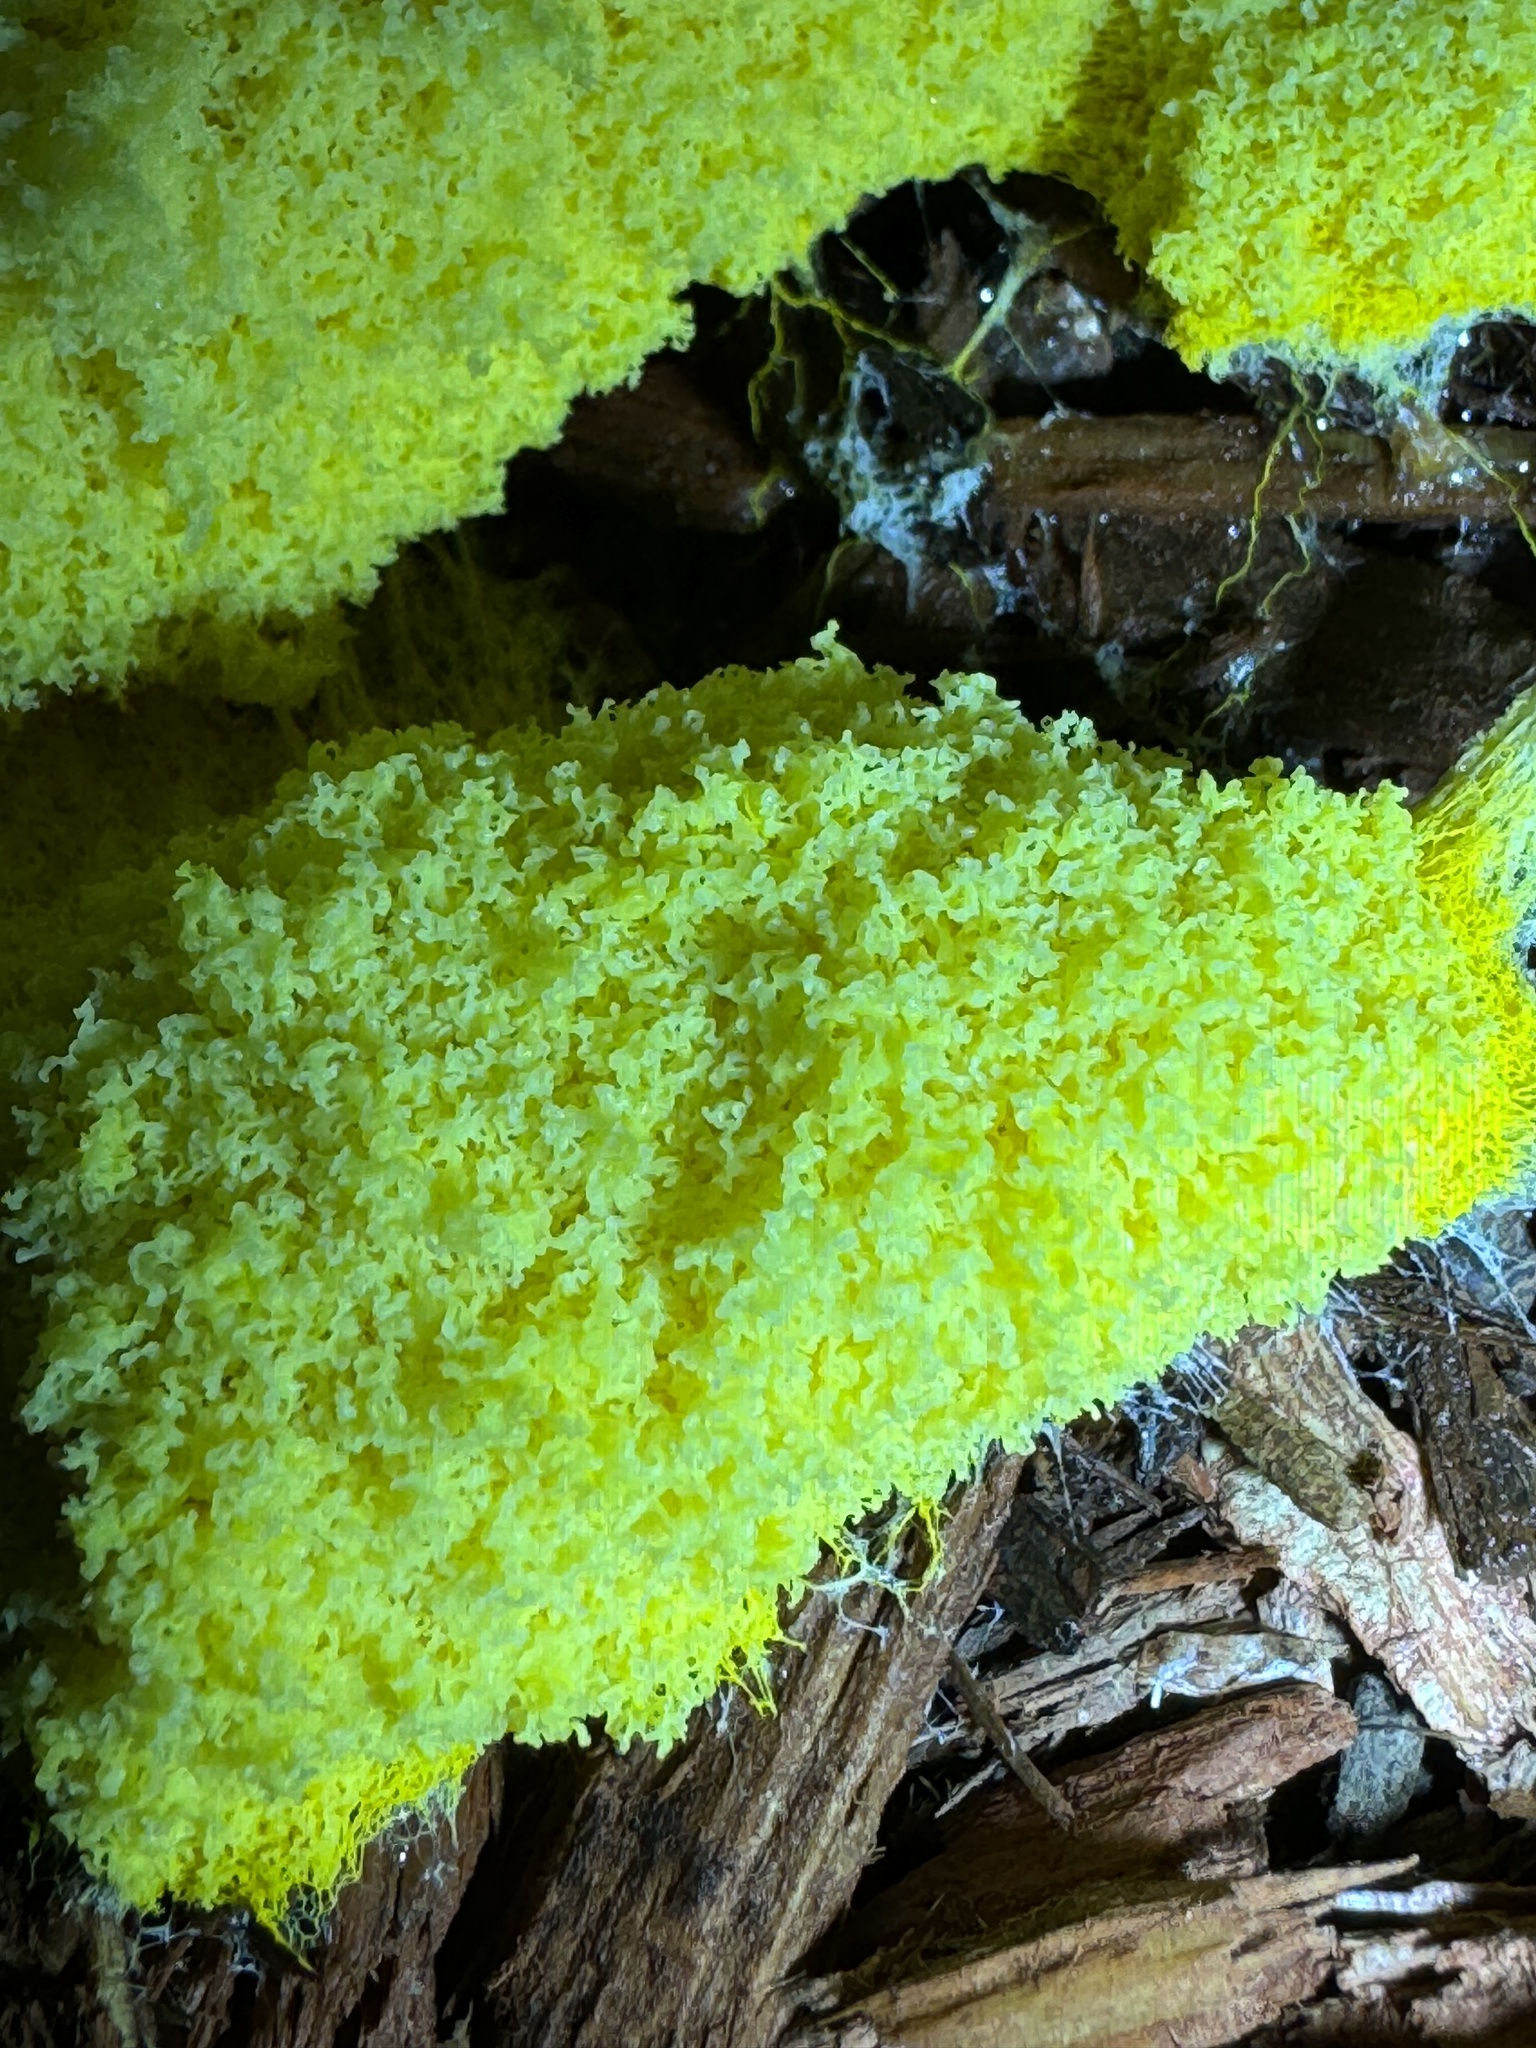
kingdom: Protozoa
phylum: Mycetozoa
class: Myxomycetes
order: Physarales
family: Physaraceae
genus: Fuligo
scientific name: Fuligo septica
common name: Dog vomit slime mold
